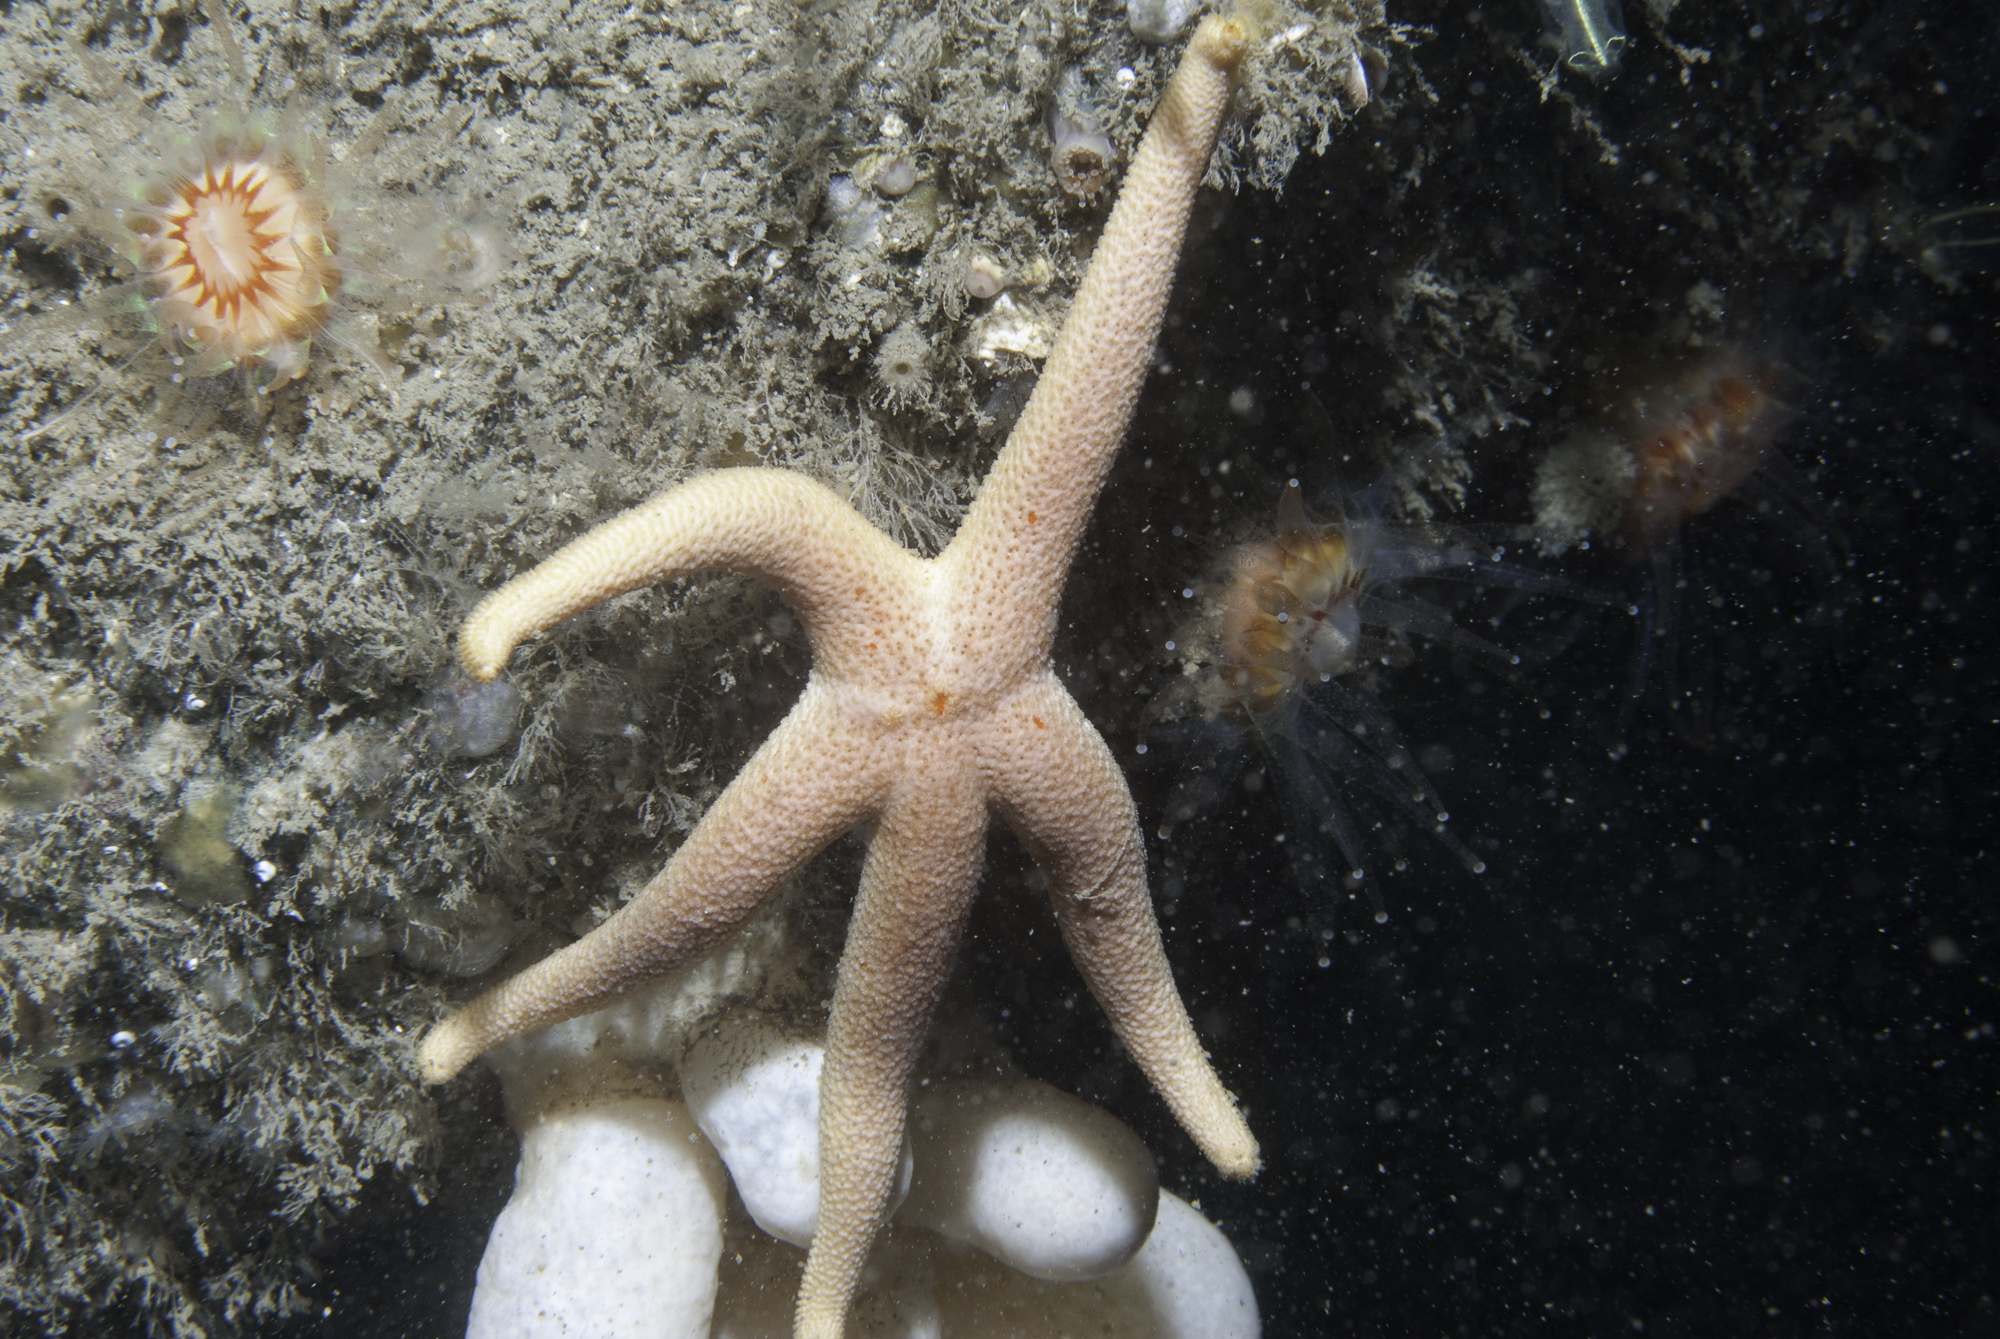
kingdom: Animalia
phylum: Echinodermata
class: Asteroidea
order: Spinulosida
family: Echinasteridae
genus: Henricia
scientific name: Henricia oculata
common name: Bloody henry starfish
